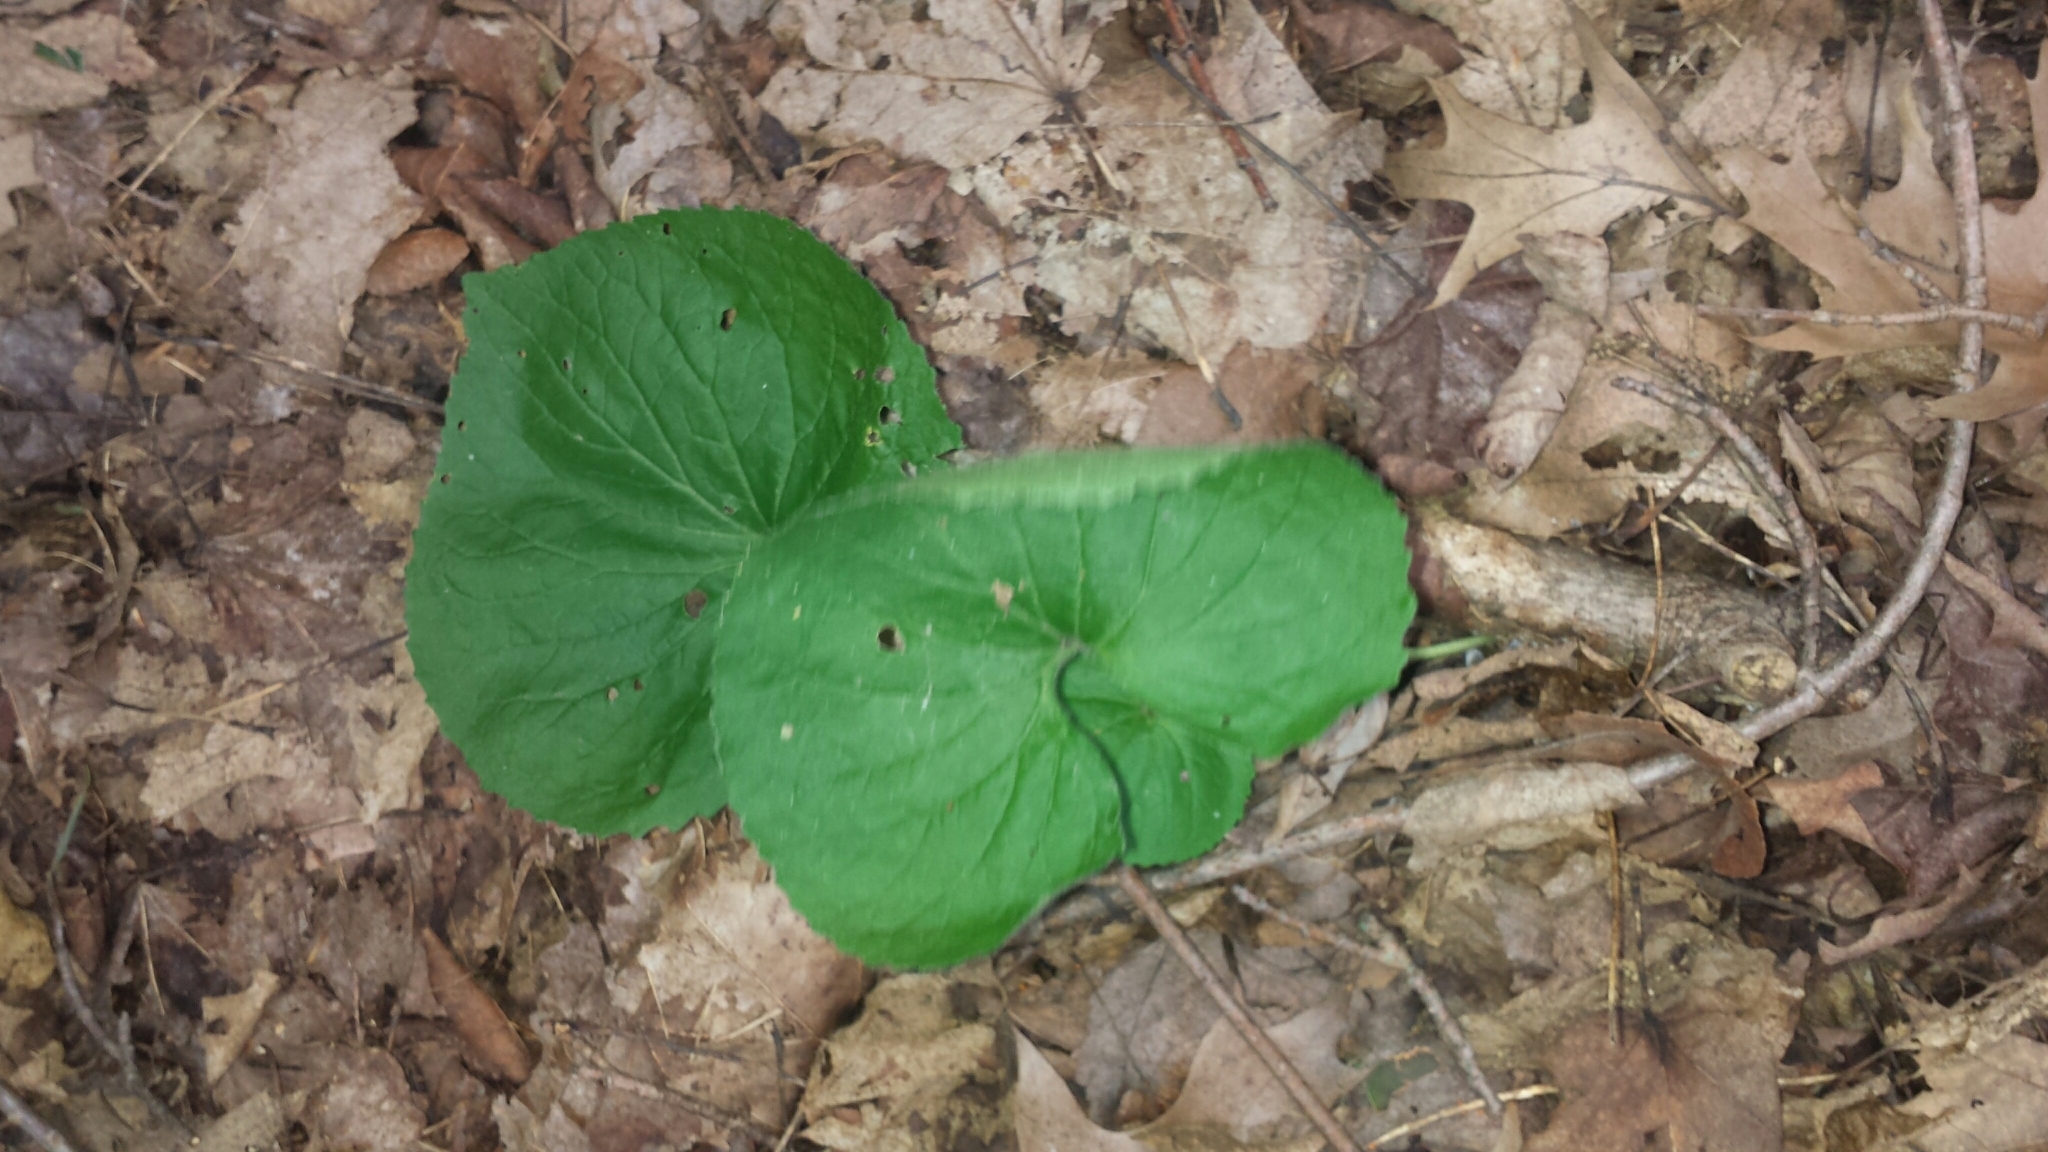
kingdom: Plantae
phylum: Tracheophyta
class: Magnoliopsida
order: Piperales
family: Aristolochiaceae
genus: Asarum
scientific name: Asarum canadense
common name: Wild ginger
